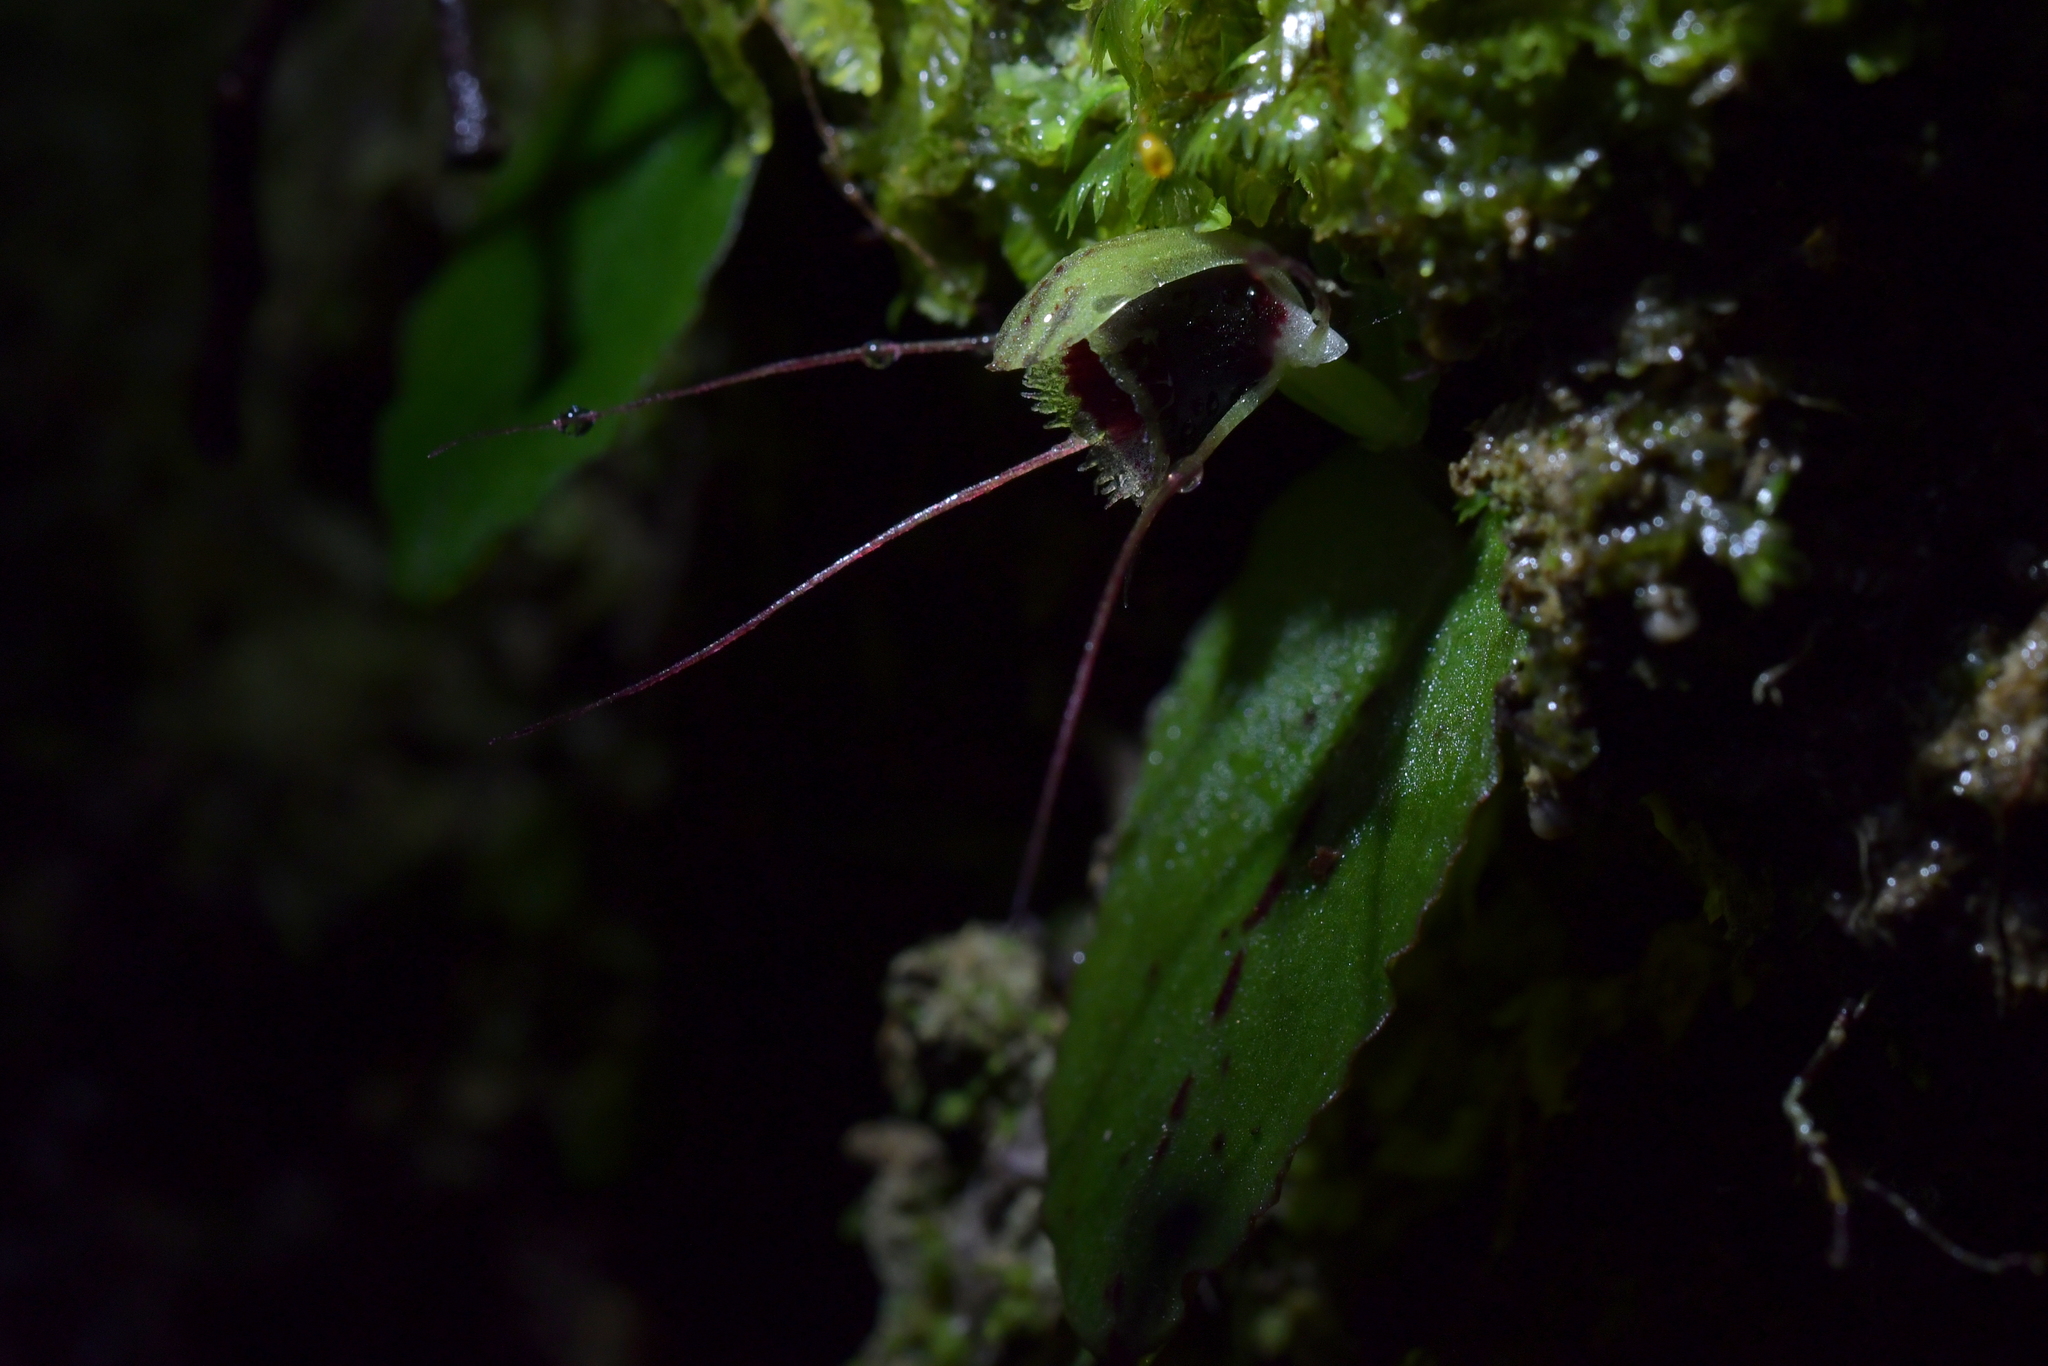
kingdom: Plantae
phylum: Tracheophyta
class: Liliopsida
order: Asparagales
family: Orchidaceae
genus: Corybas
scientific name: Corybas oblongus
